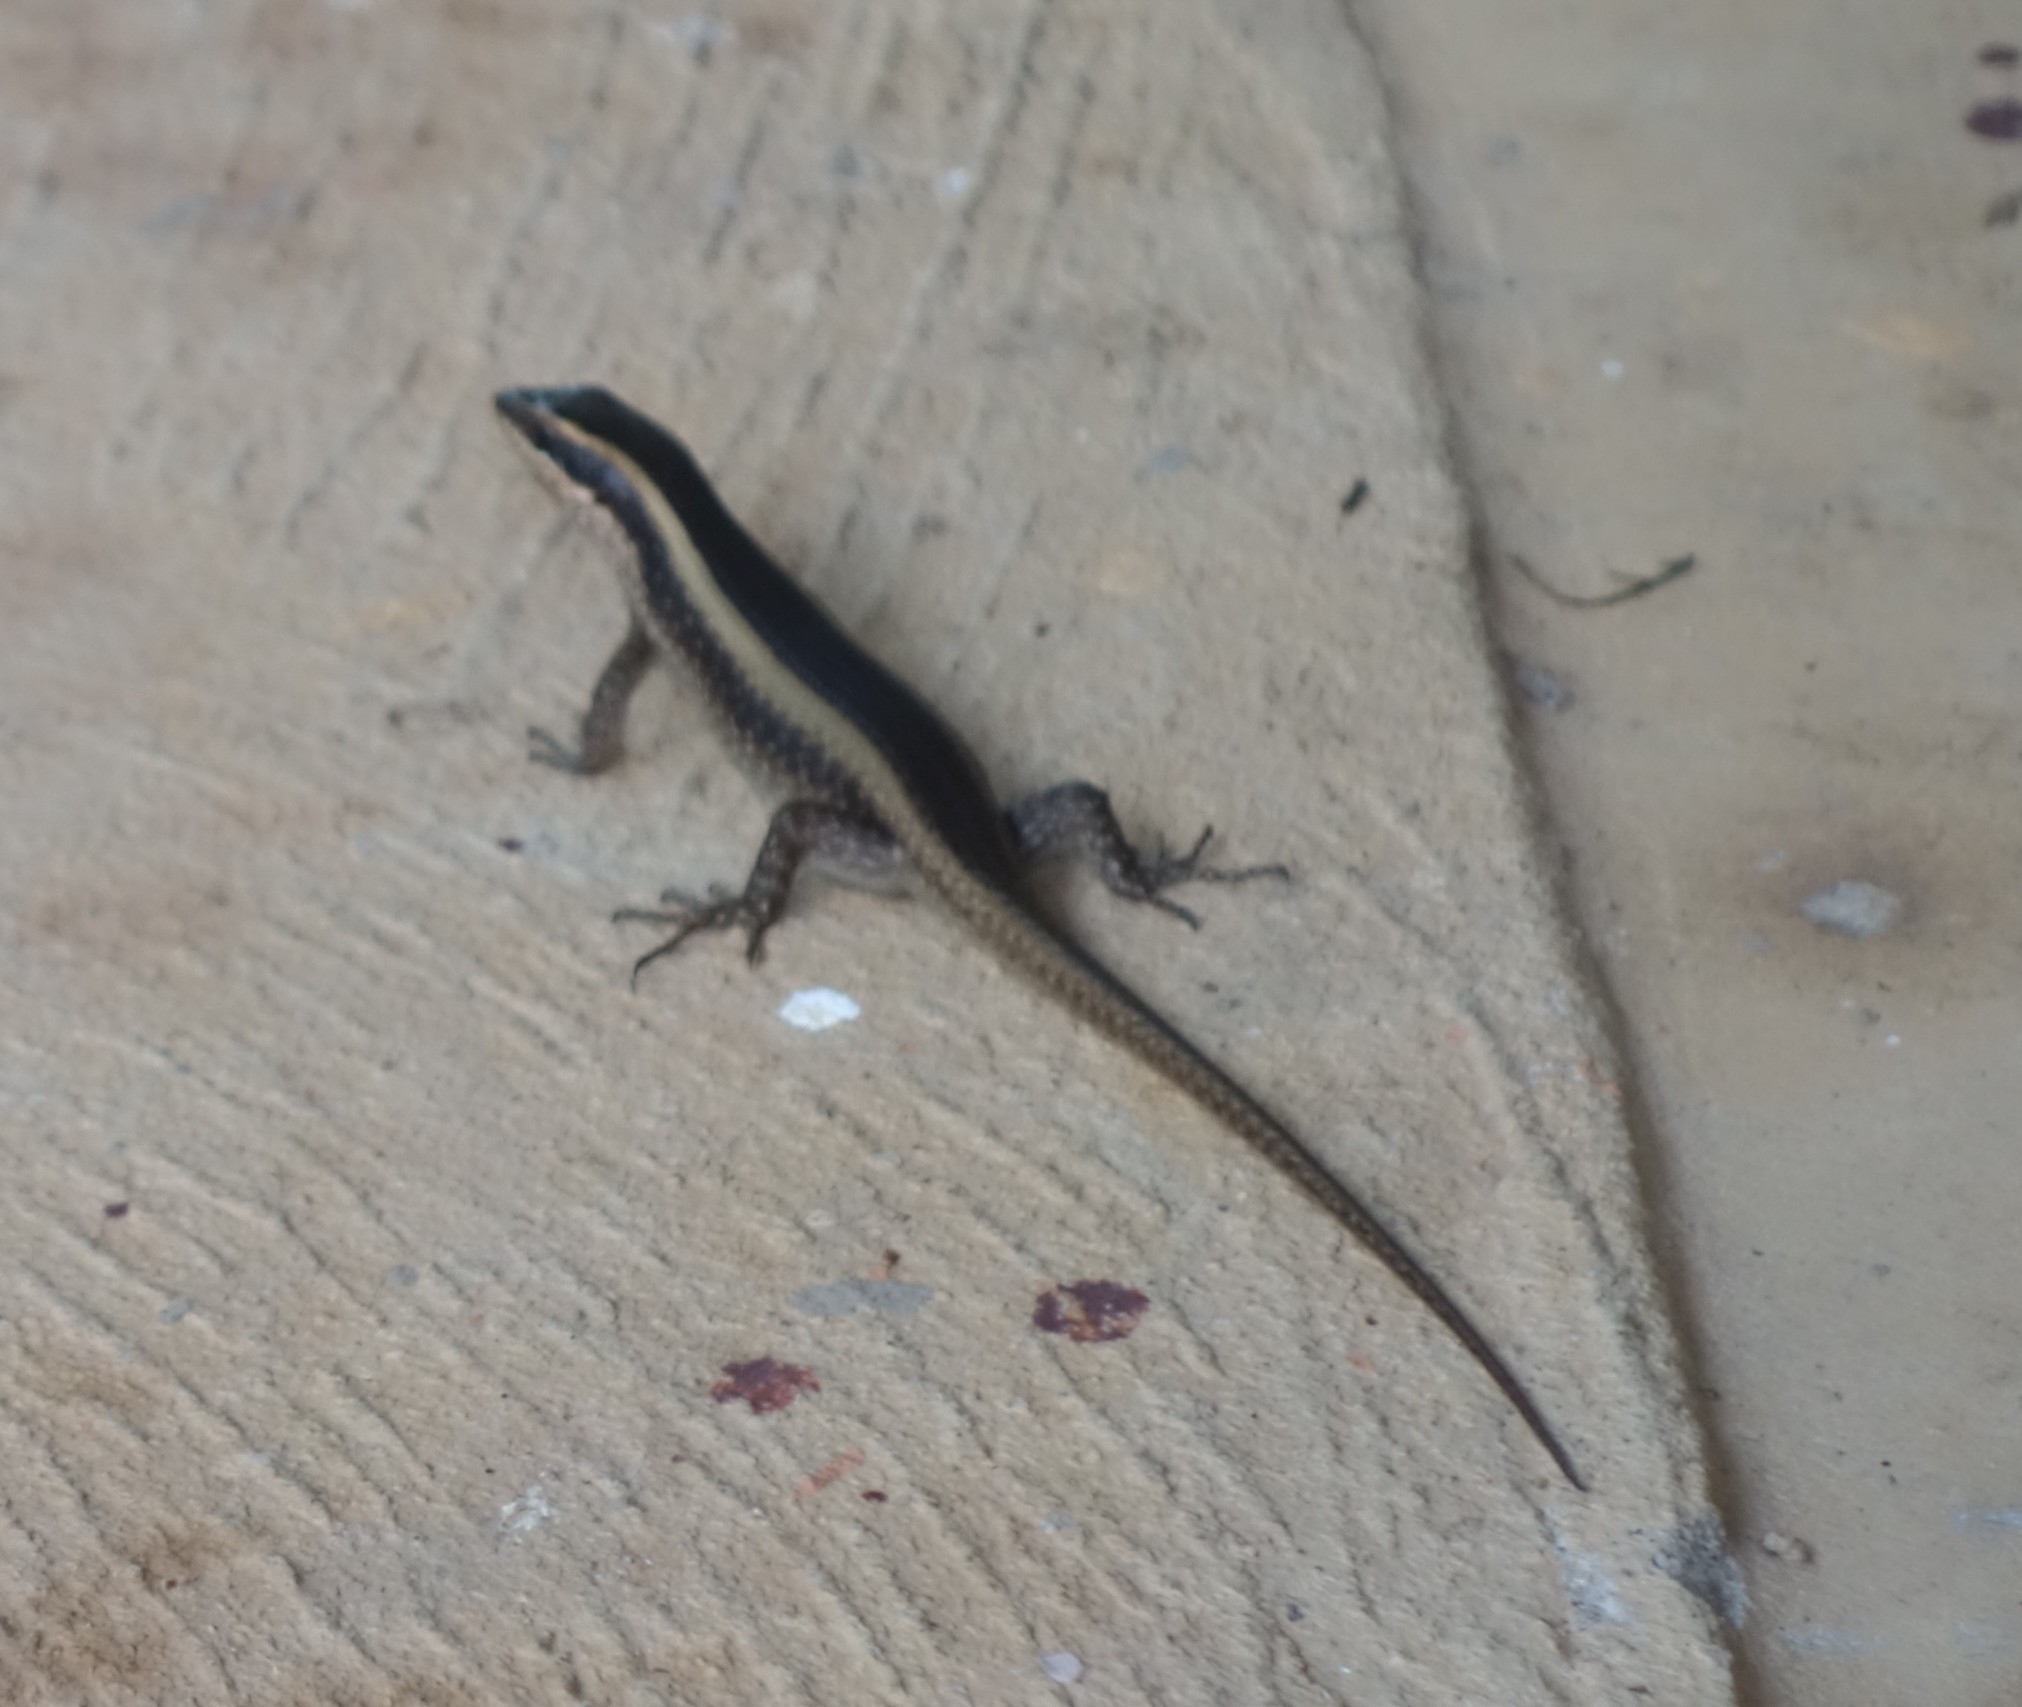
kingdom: Animalia
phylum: Chordata
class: Squamata
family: Scincidae
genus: Trachylepis
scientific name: Trachylepis striata
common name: African striped mabuya
